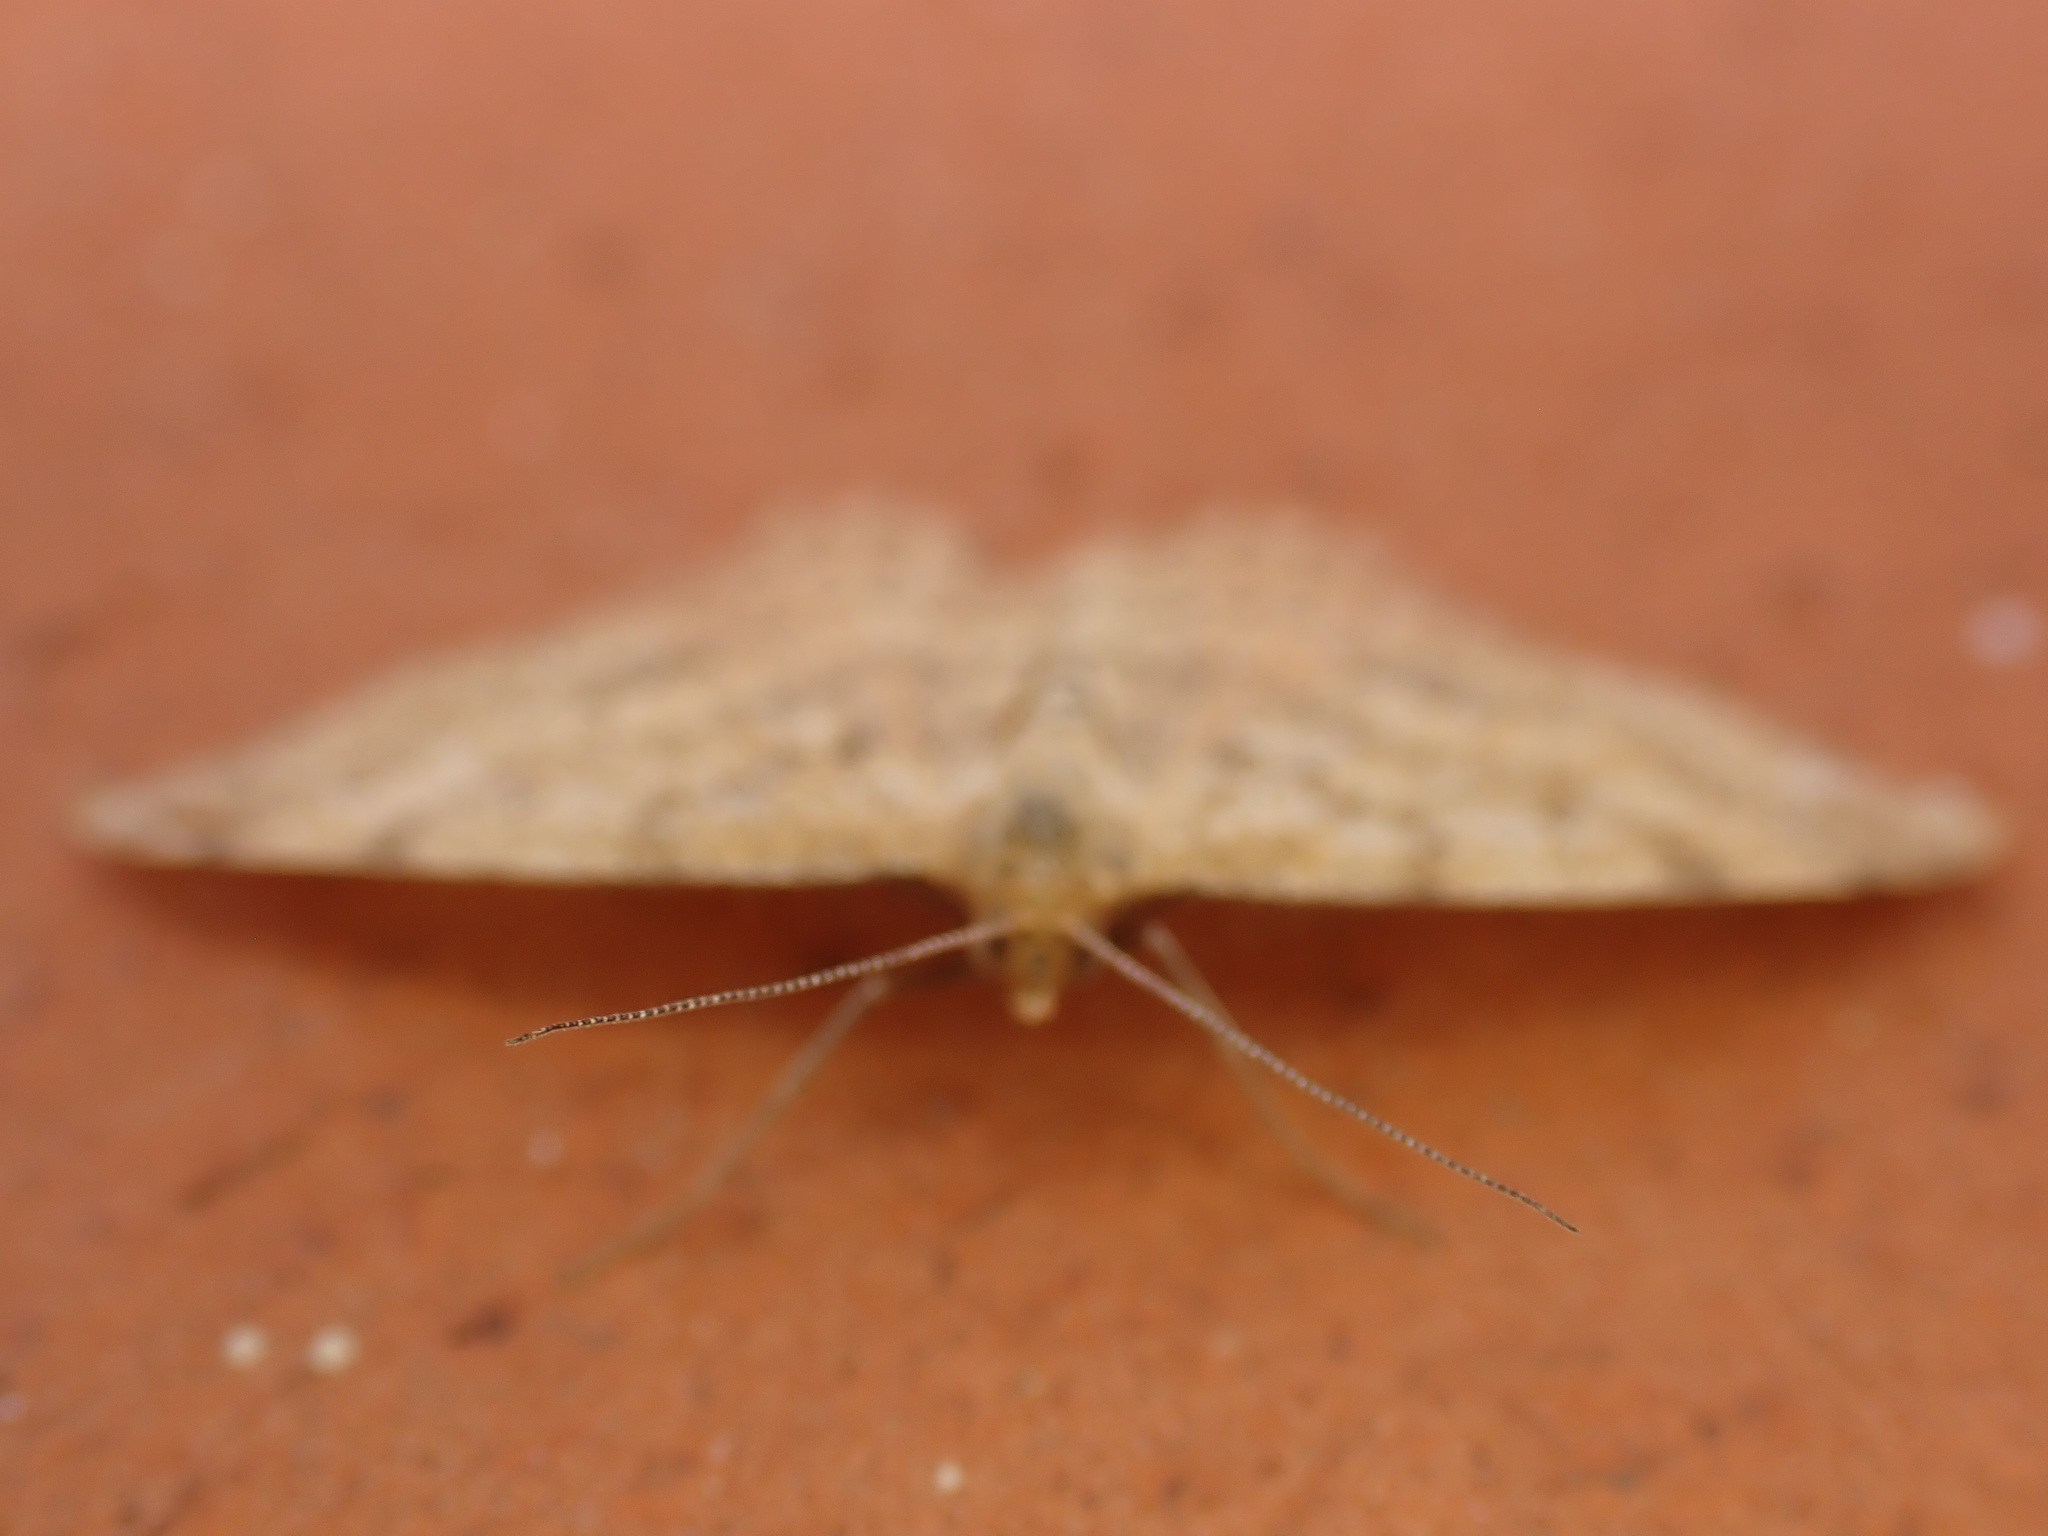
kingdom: Animalia
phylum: Arthropoda
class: Insecta
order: Lepidoptera
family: Geometridae
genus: Scopula
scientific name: Scopula rubraria
